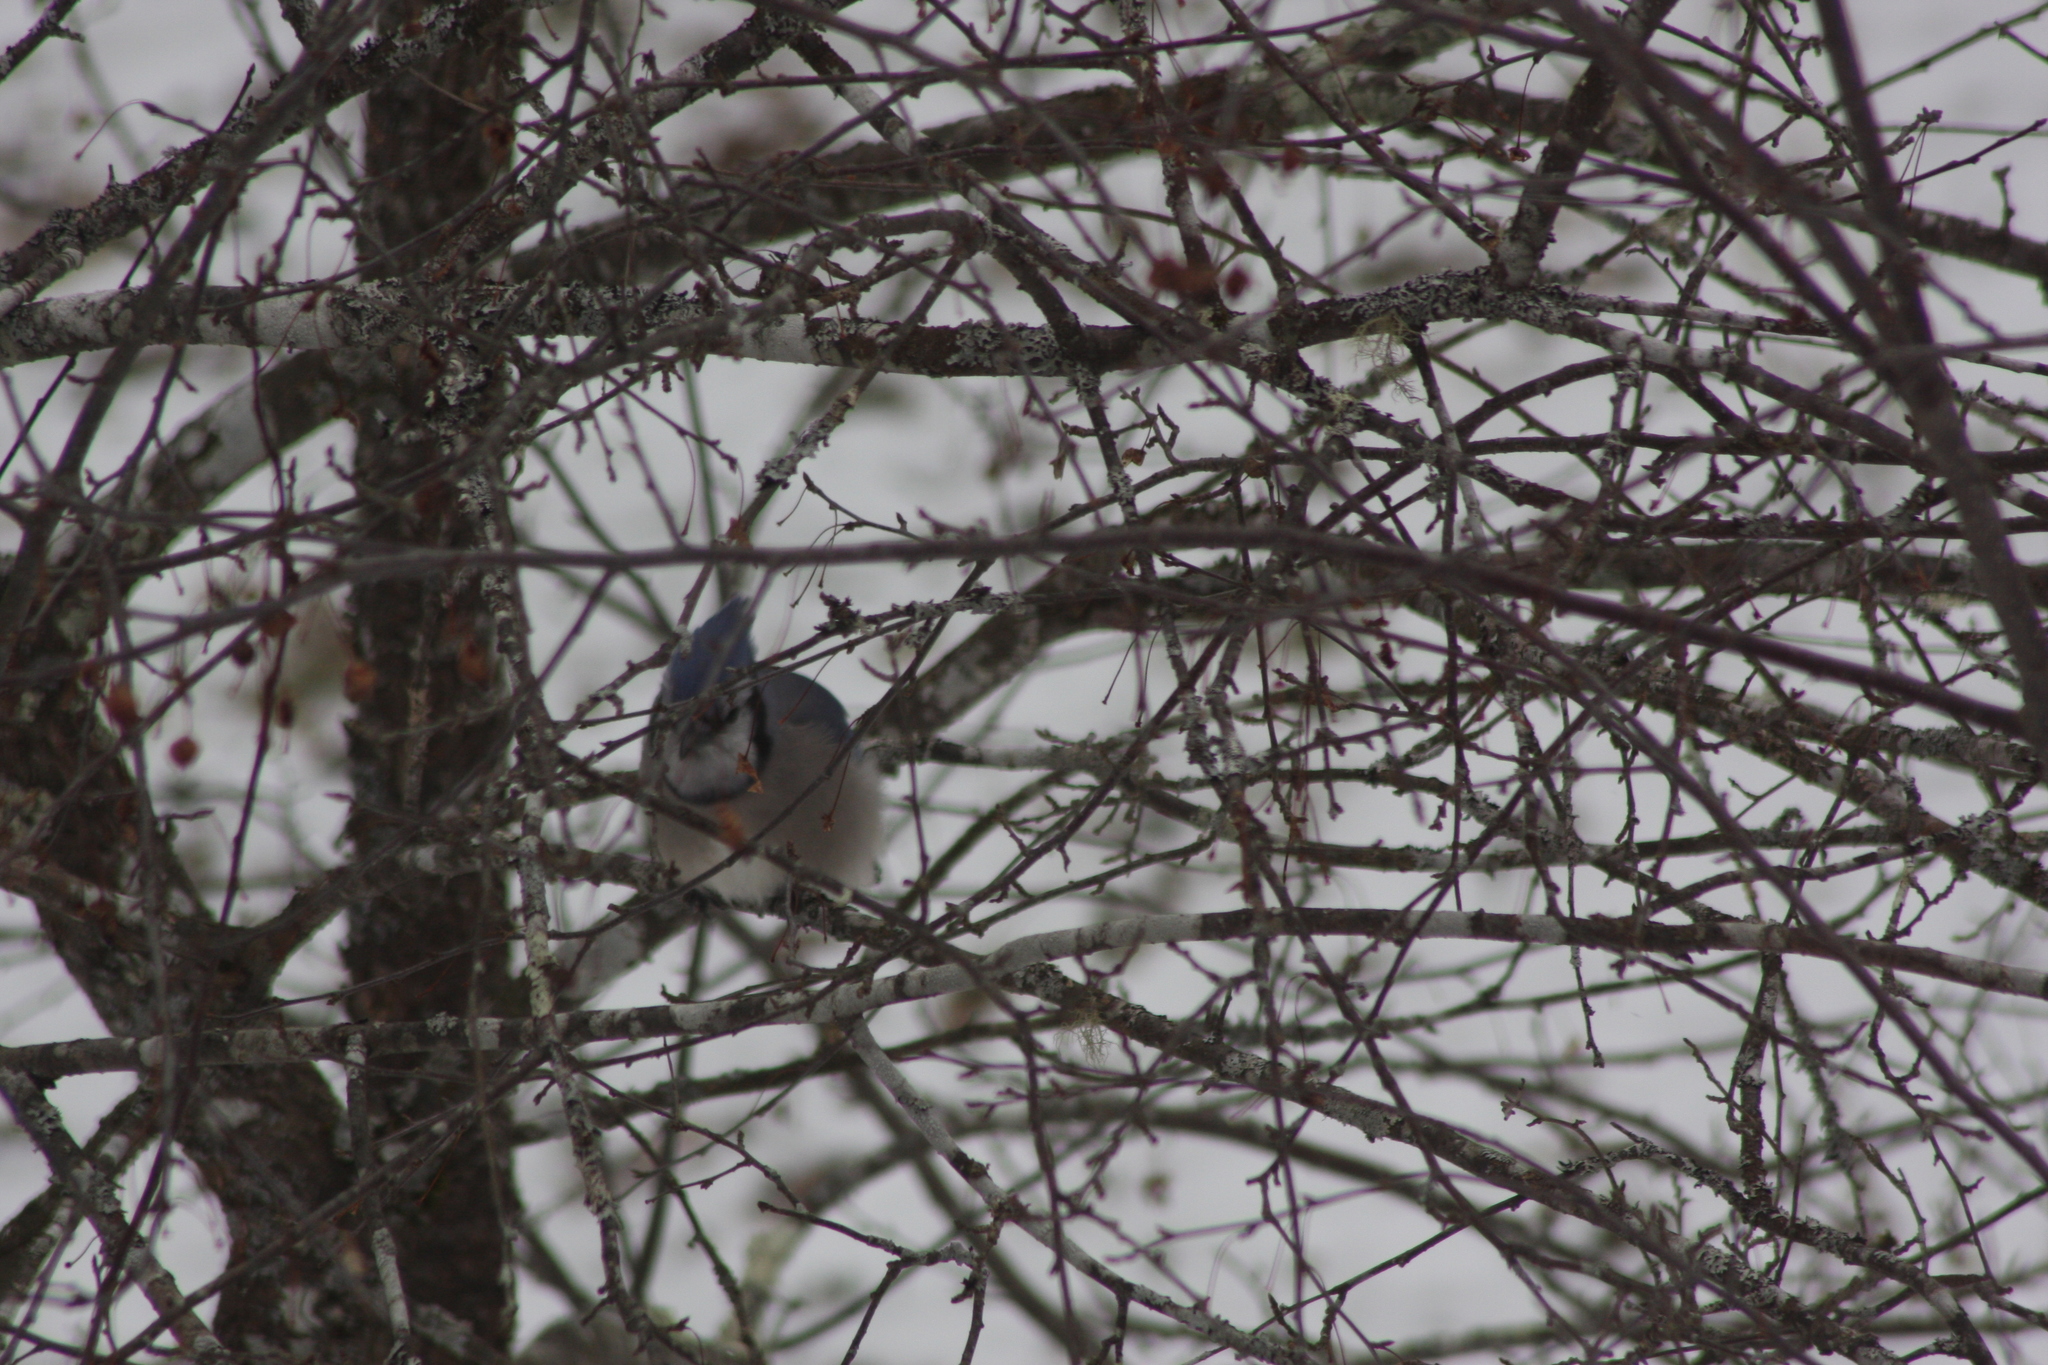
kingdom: Animalia
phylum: Chordata
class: Aves
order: Passeriformes
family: Corvidae
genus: Cyanocitta
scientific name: Cyanocitta cristata
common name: Blue jay
